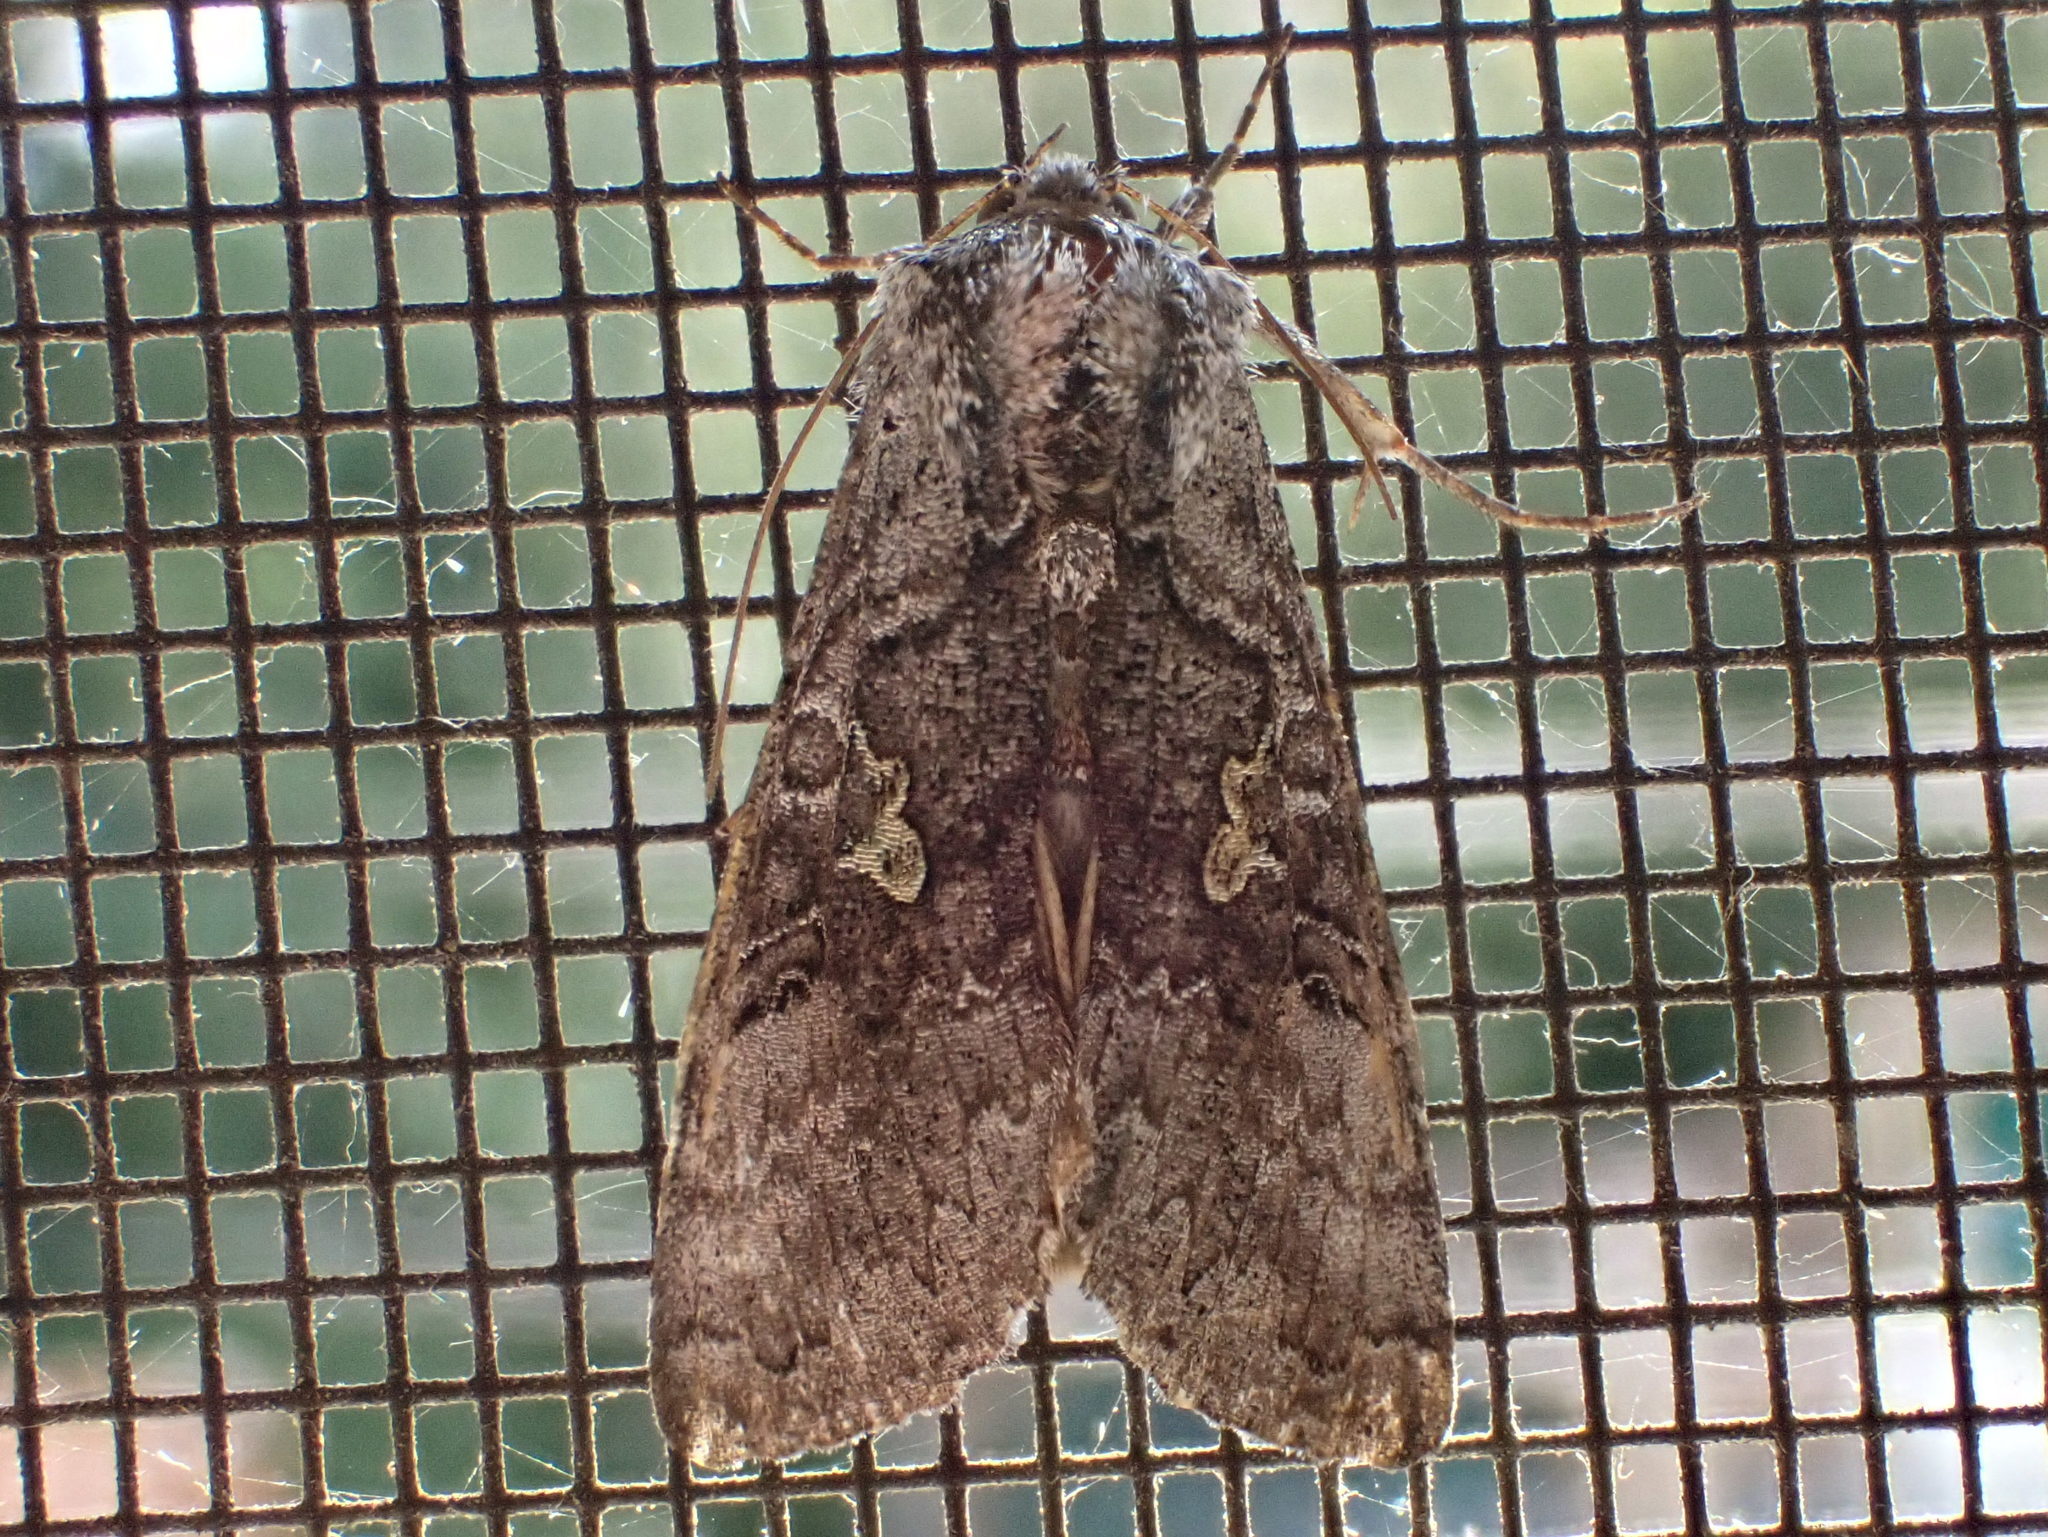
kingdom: Animalia
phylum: Arthropoda
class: Insecta
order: Lepidoptera
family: Noctuidae
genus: Syngrapha
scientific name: Syngrapha viridisigma
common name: Spruce false looper moth
